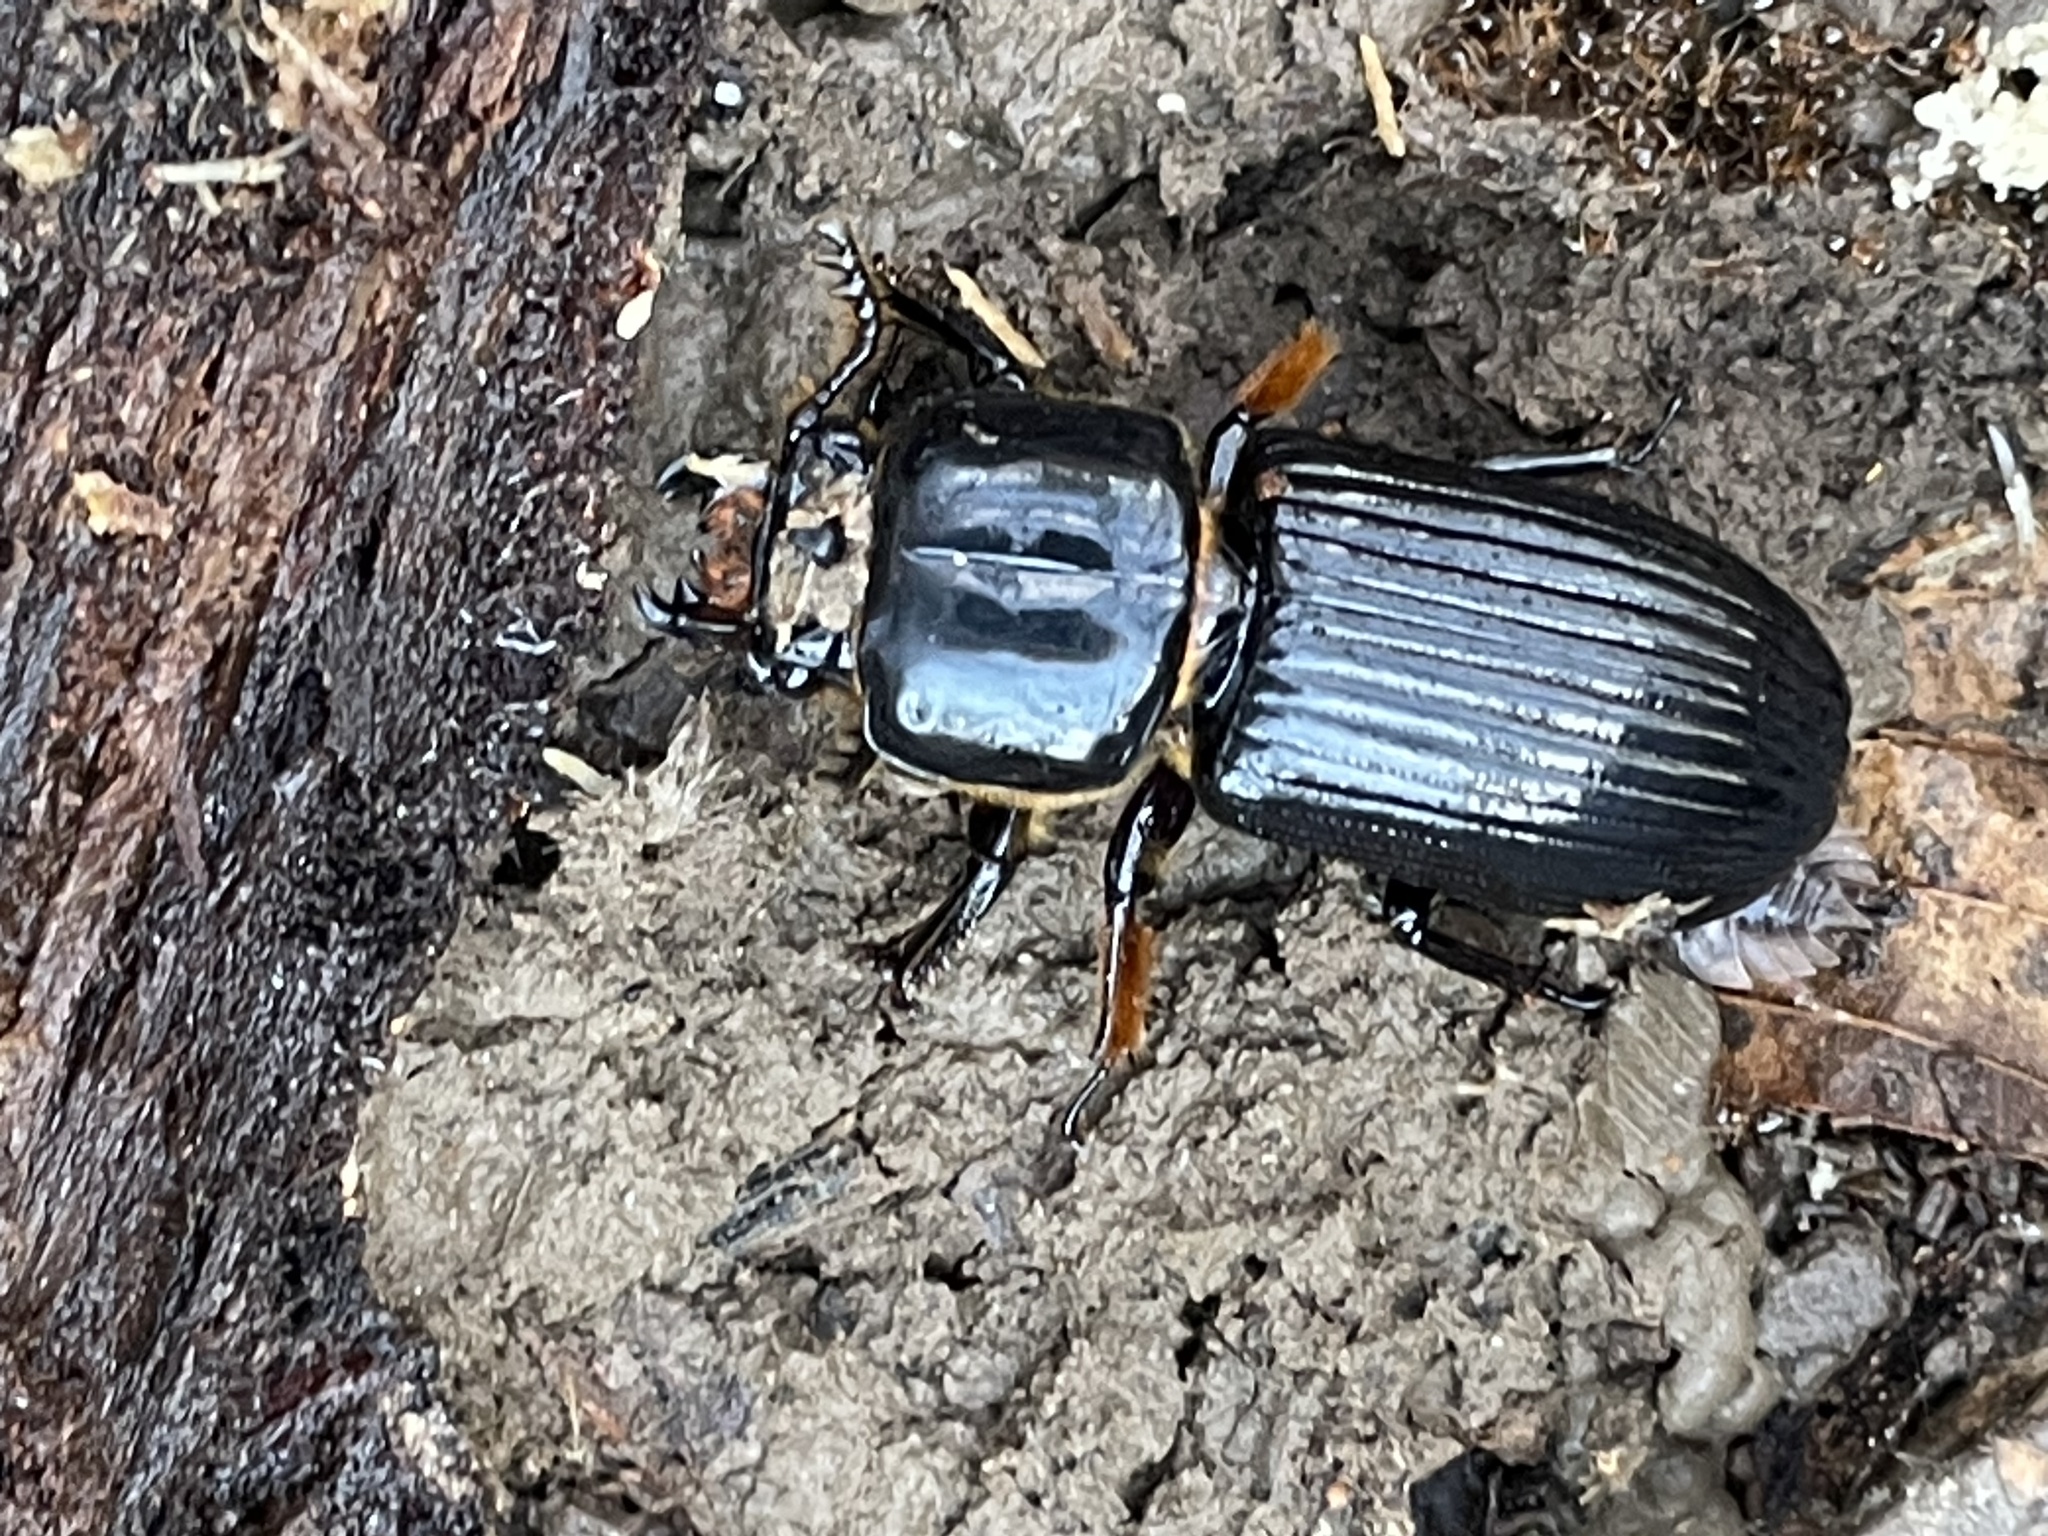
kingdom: Animalia
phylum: Arthropoda
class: Insecta
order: Coleoptera
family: Passalidae
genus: Odontotaenius
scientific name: Odontotaenius disjunctus
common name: Patent leather beetle
